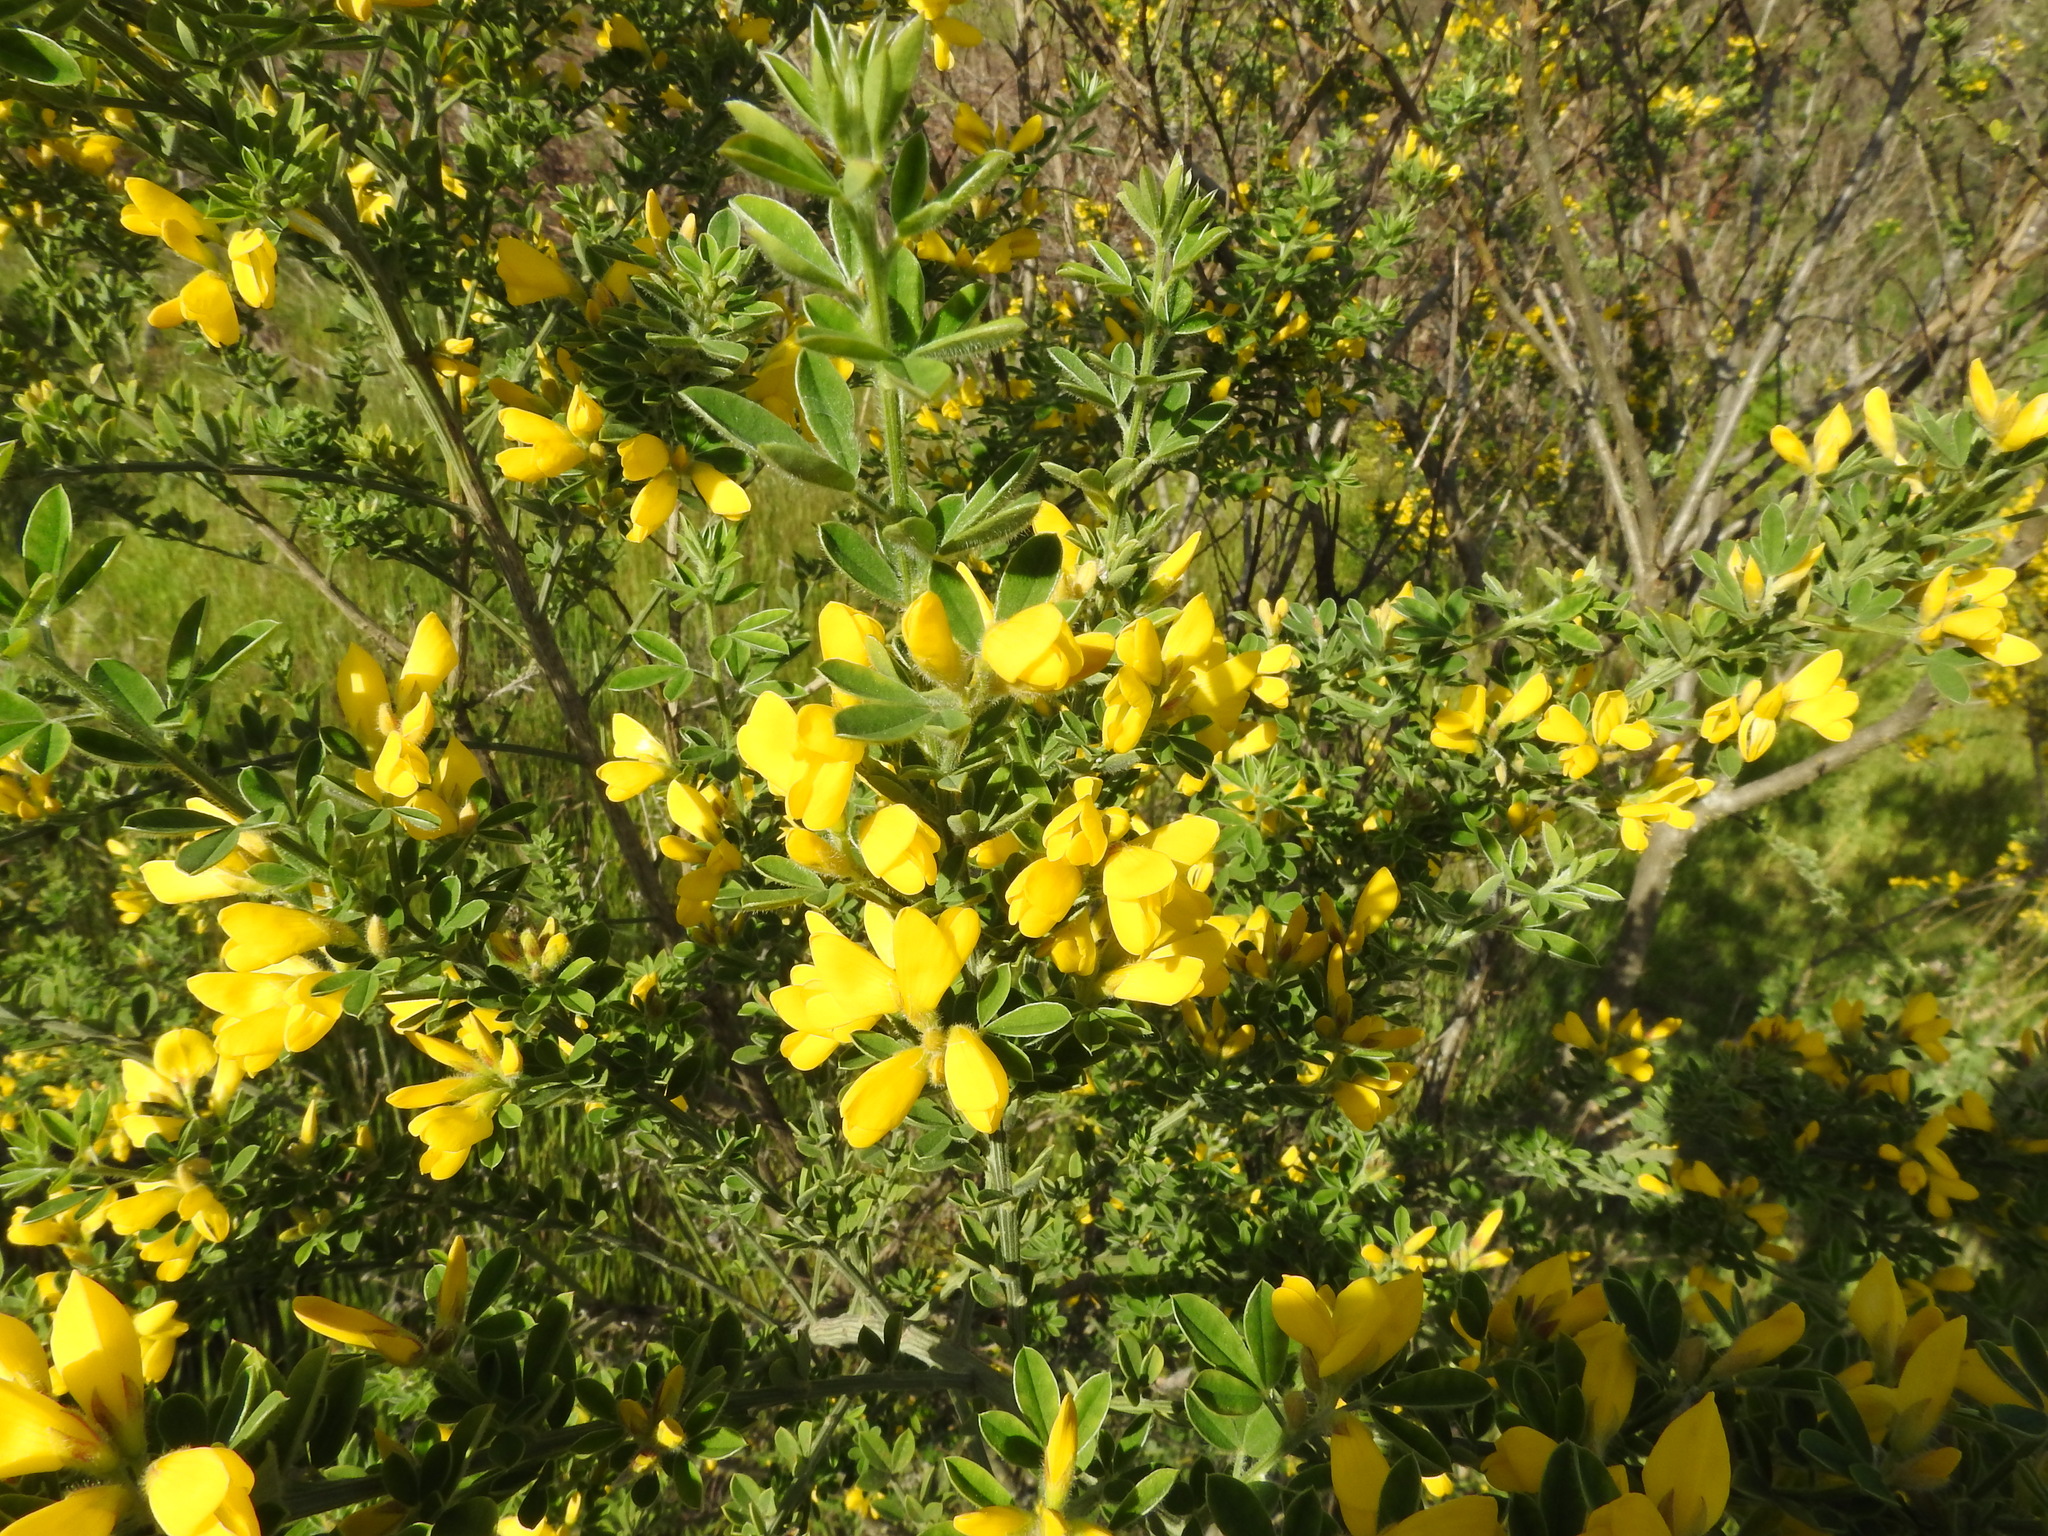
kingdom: Plantae
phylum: Tracheophyta
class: Magnoliopsida
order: Fabales
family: Fabaceae
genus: Genista
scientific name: Genista monspessulana
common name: Montpellier broom
